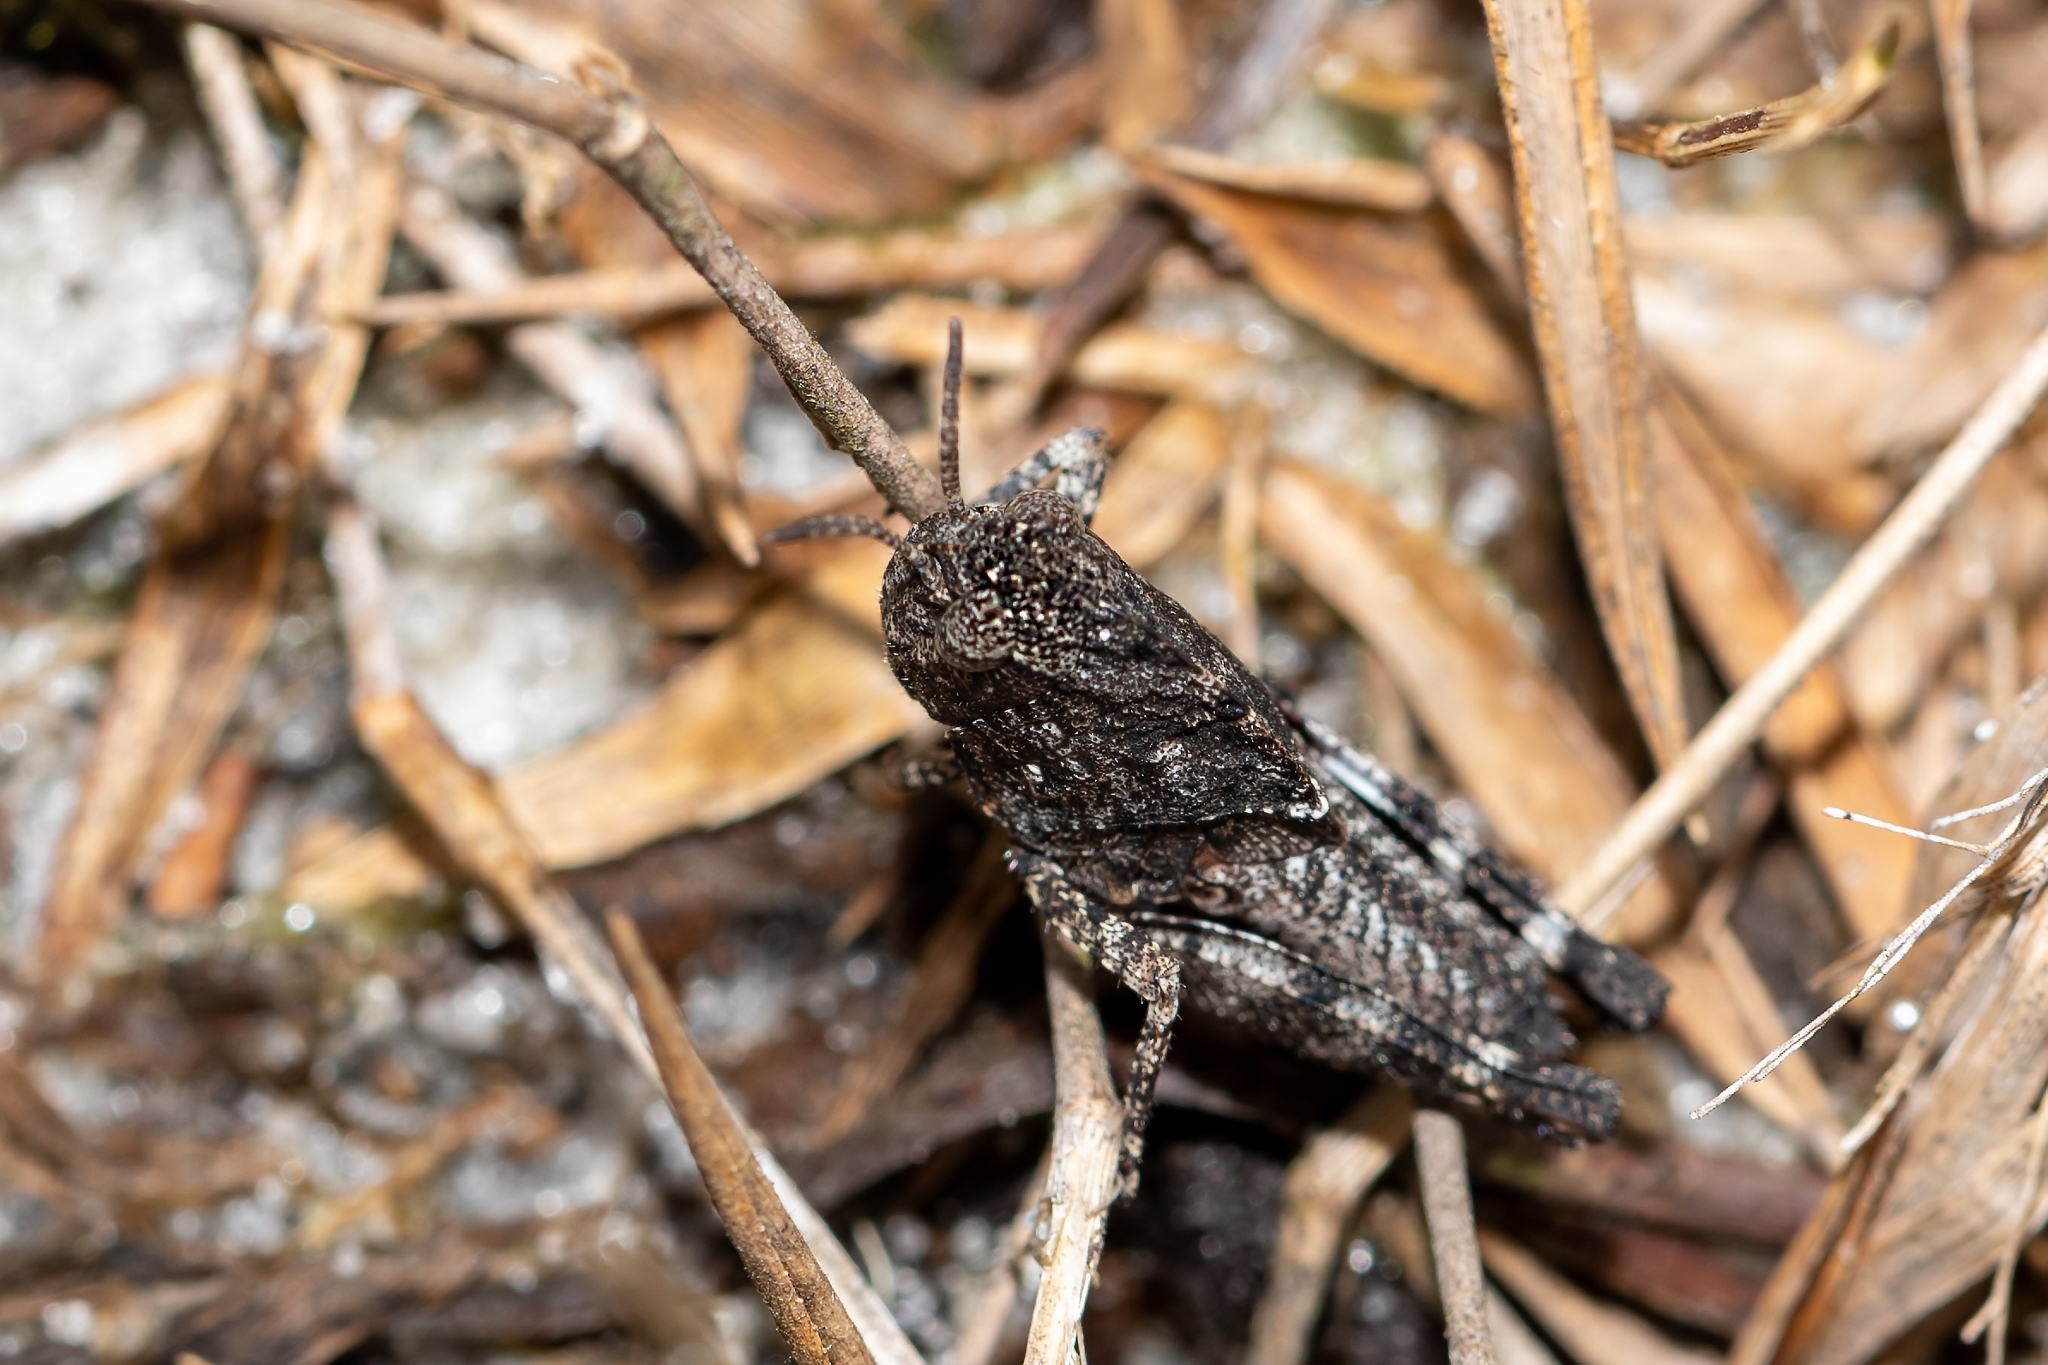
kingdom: Animalia
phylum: Arthropoda
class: Insecta
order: Orthoptera
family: Acrididae
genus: Arphia
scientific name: Arphia granulata
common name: Southern yellow-winged grasshopper
